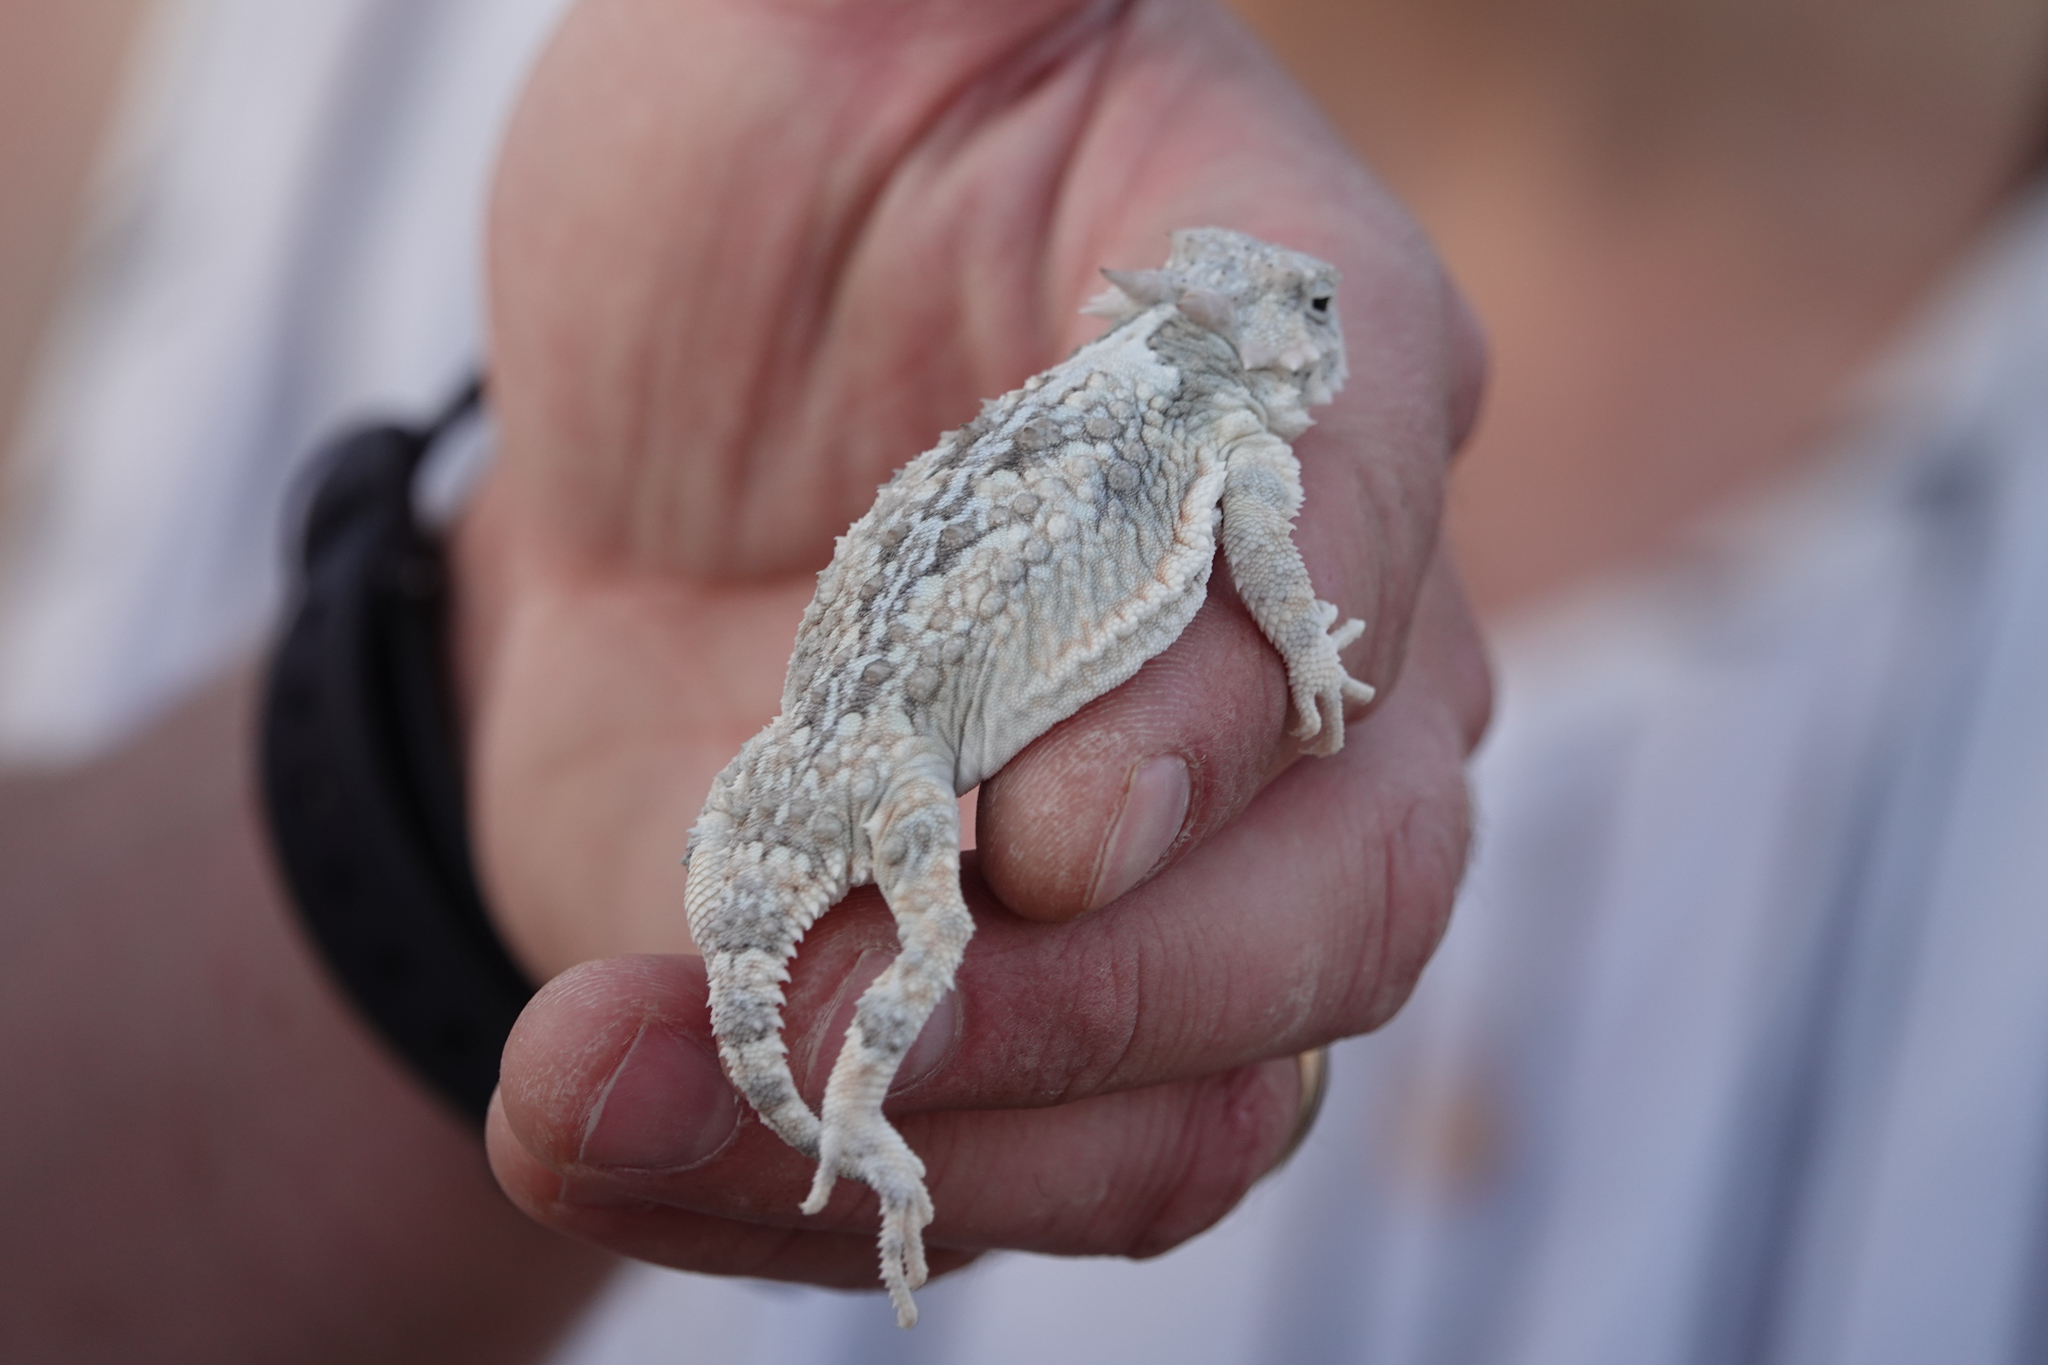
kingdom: Animalia
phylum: Chordata
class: Squamata
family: Phrynosomatidae
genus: Phrynosoma
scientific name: Phrynosoma platyrhinos
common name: Desert horned lizard
